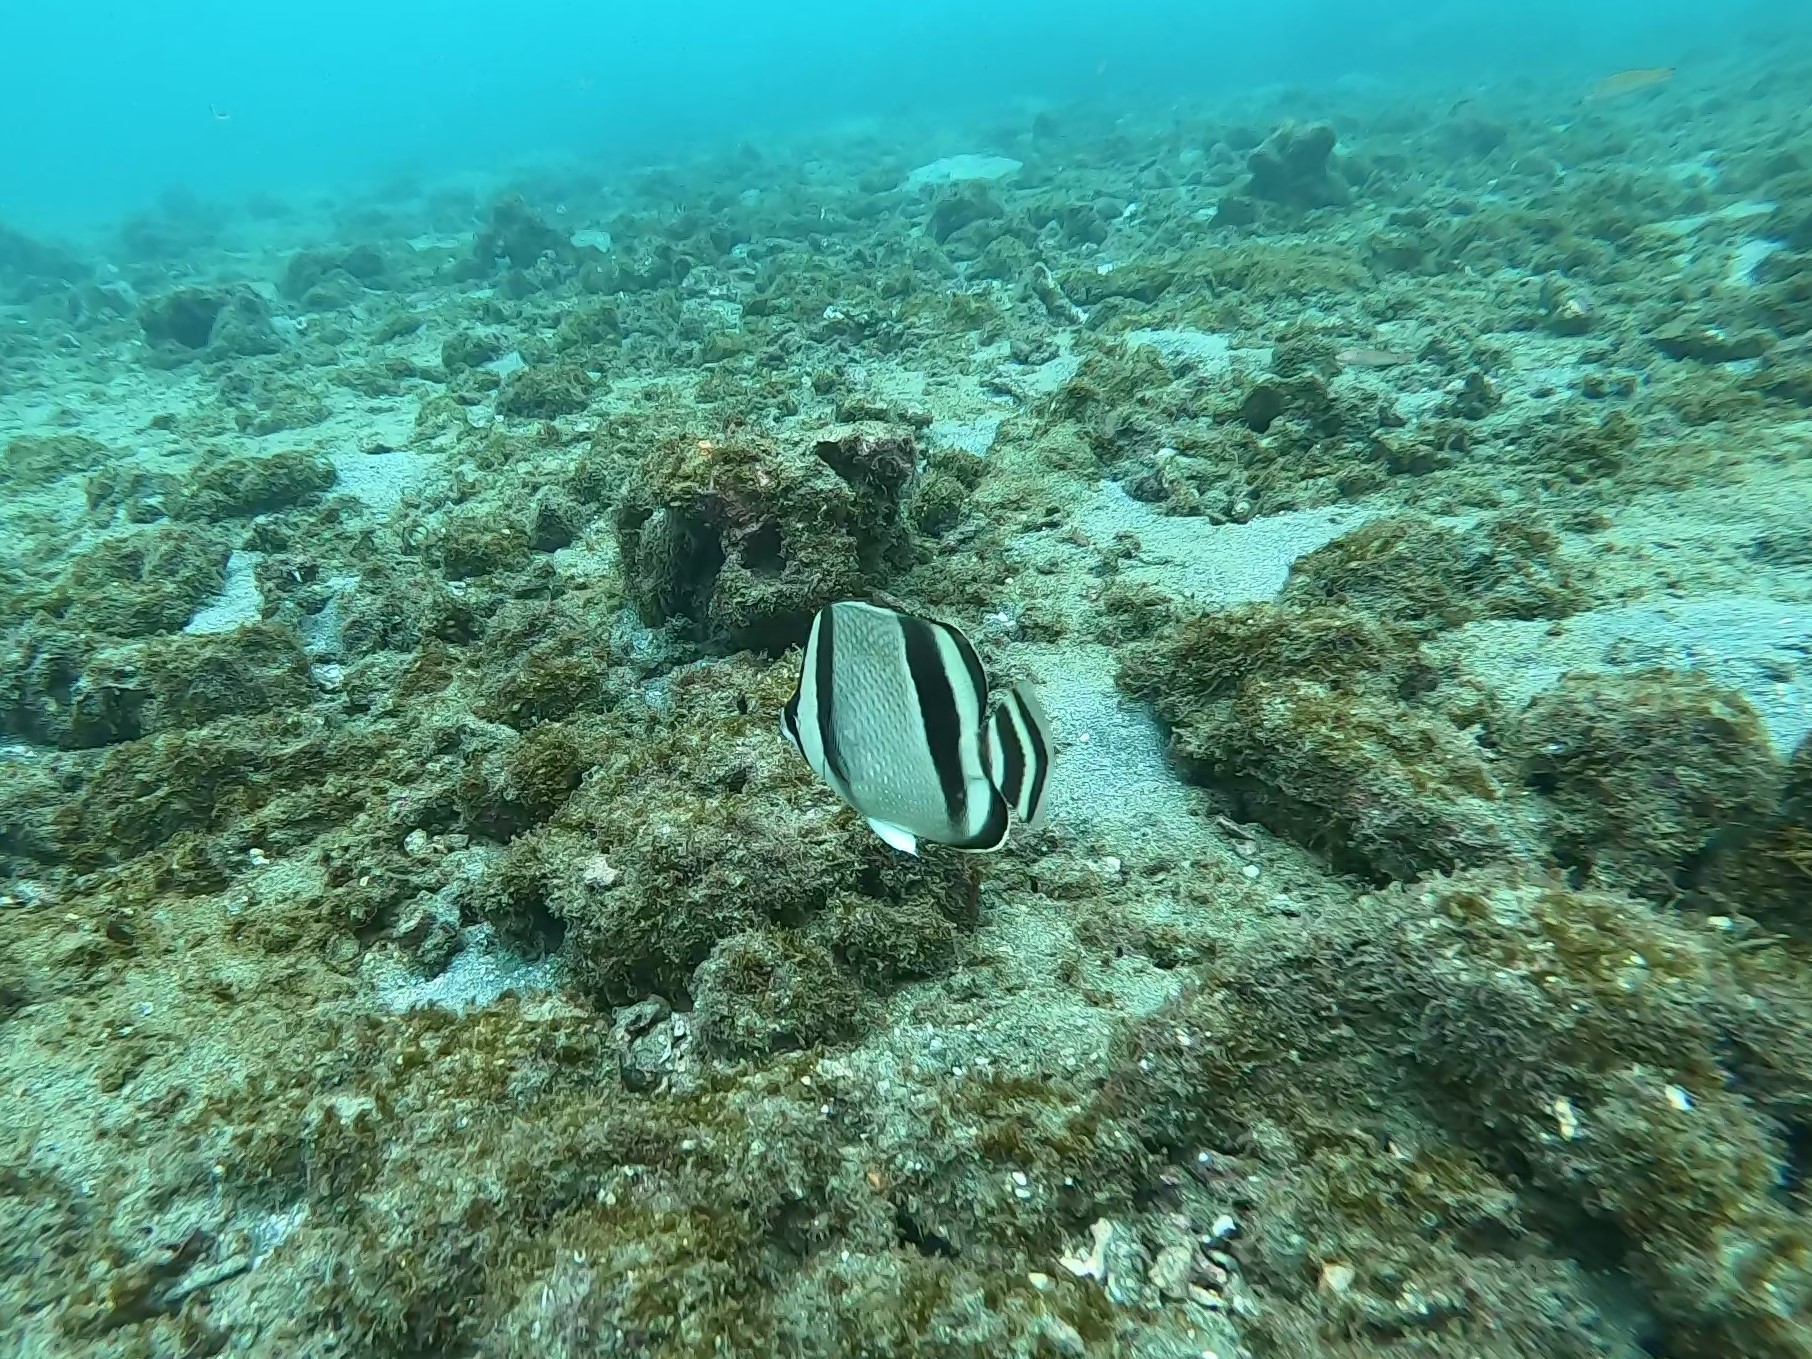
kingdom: Animalia
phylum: Chordata
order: Perciformes
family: Chaetodontidae
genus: Chaetodon
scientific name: Chaetodon humeralis
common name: Threebanded butterflyfish
